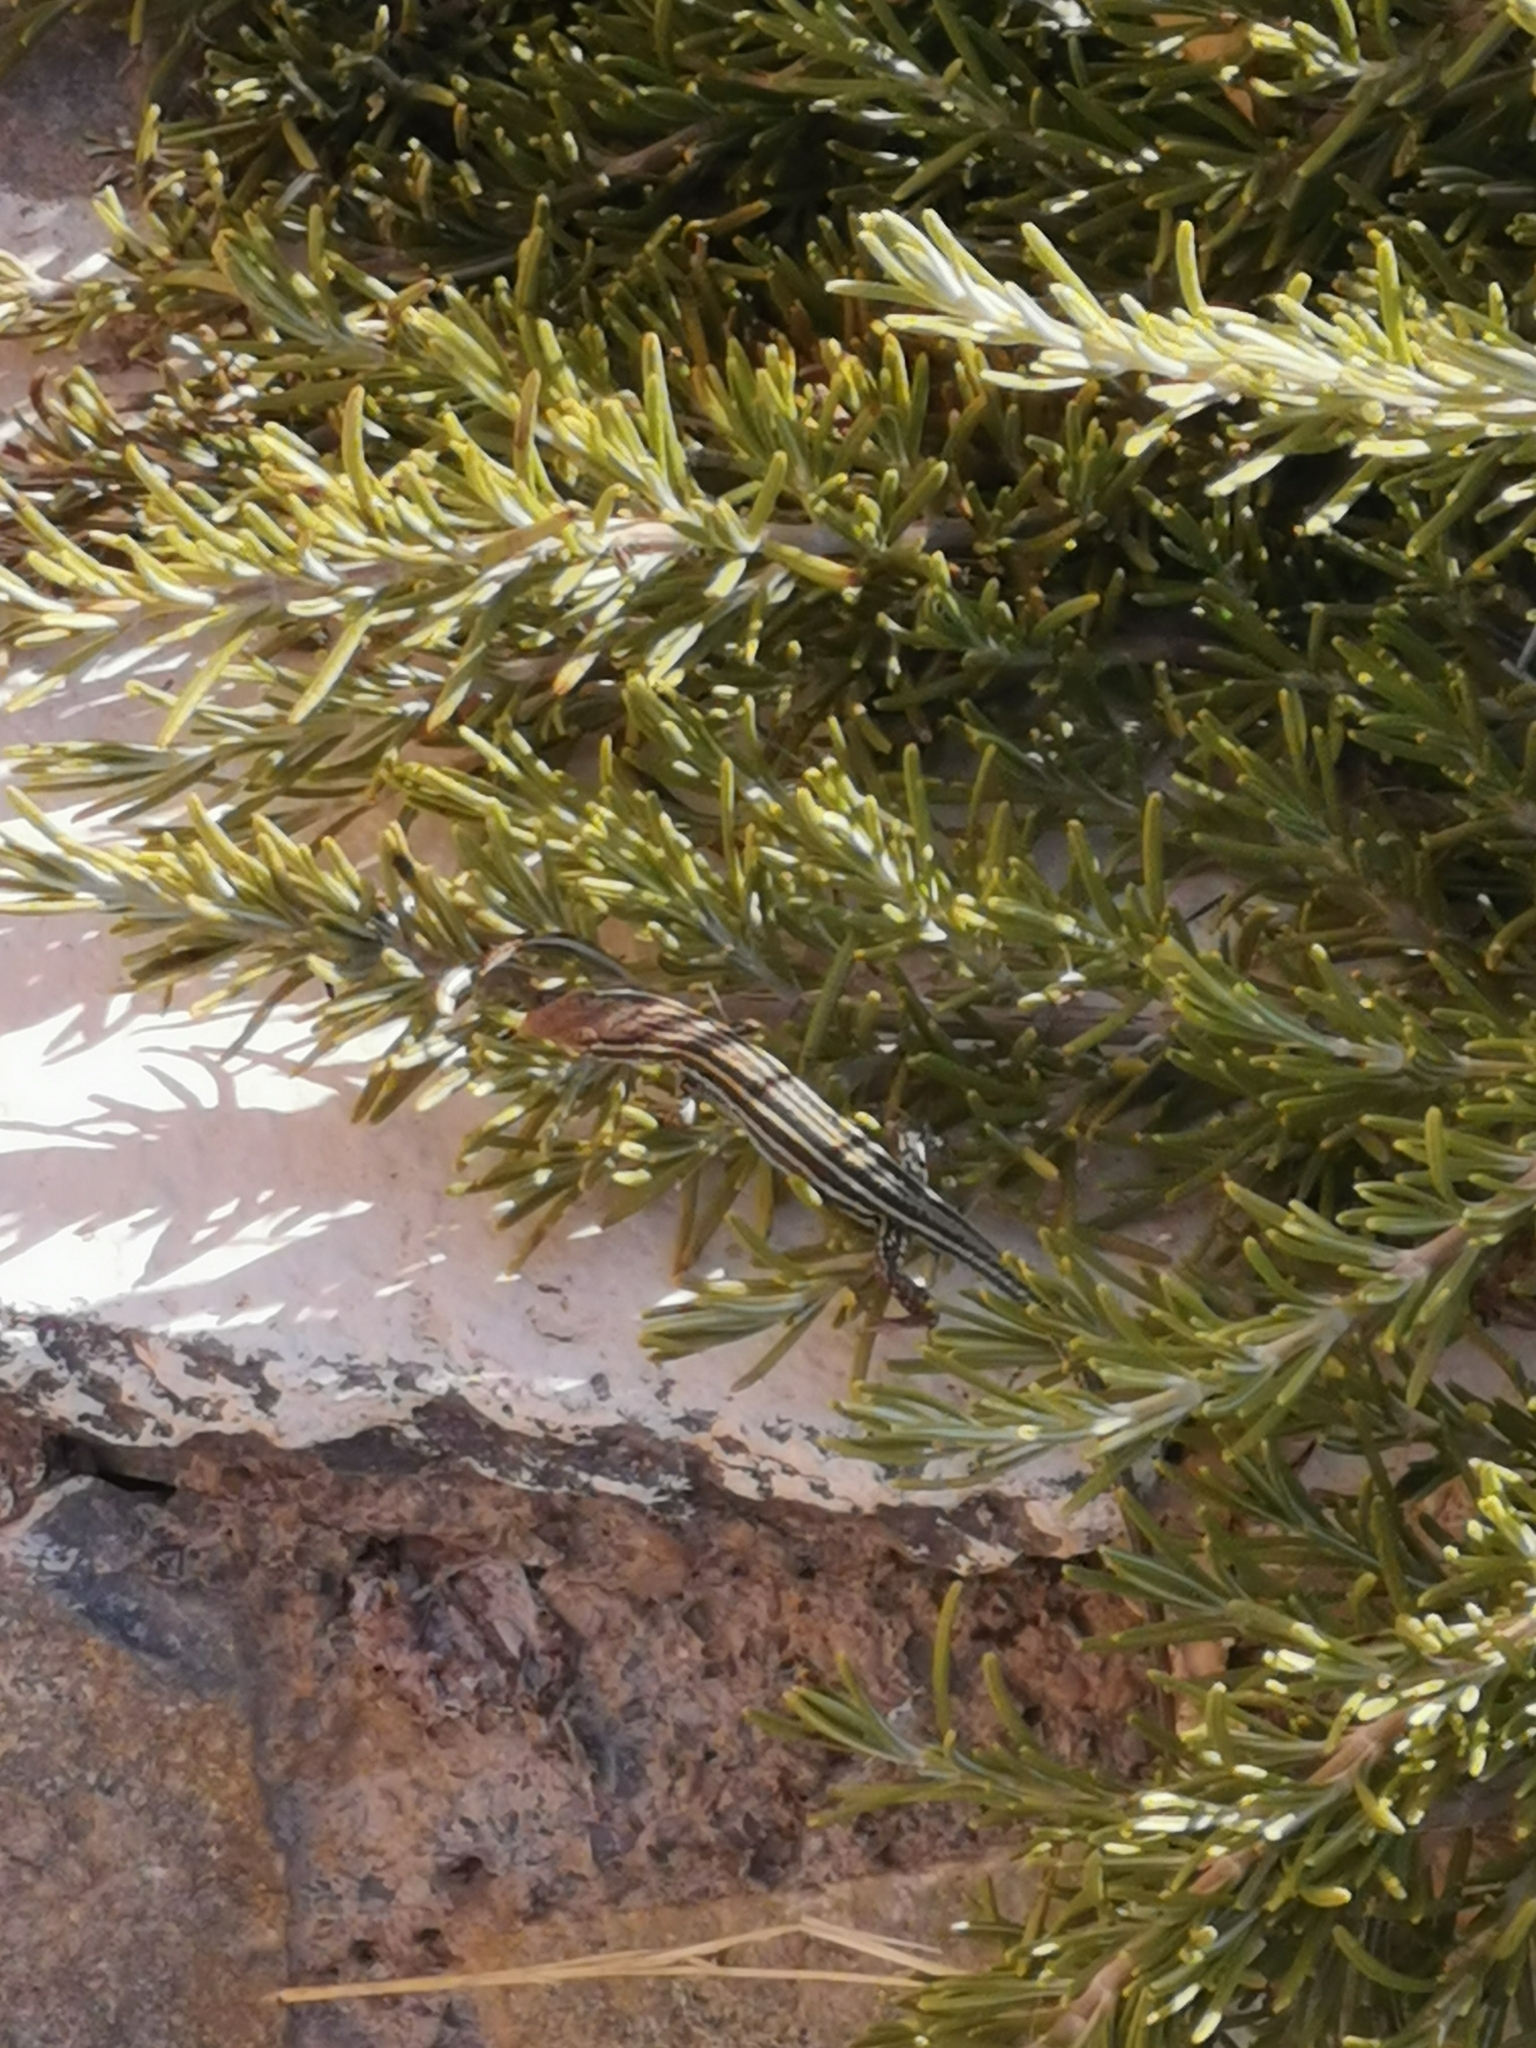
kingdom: Animalia
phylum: Chordata
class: Squamata
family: Lacertidae
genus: Podarcis
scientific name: Podarcis peloponnesiacus
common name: Peloponnese wall lizard
